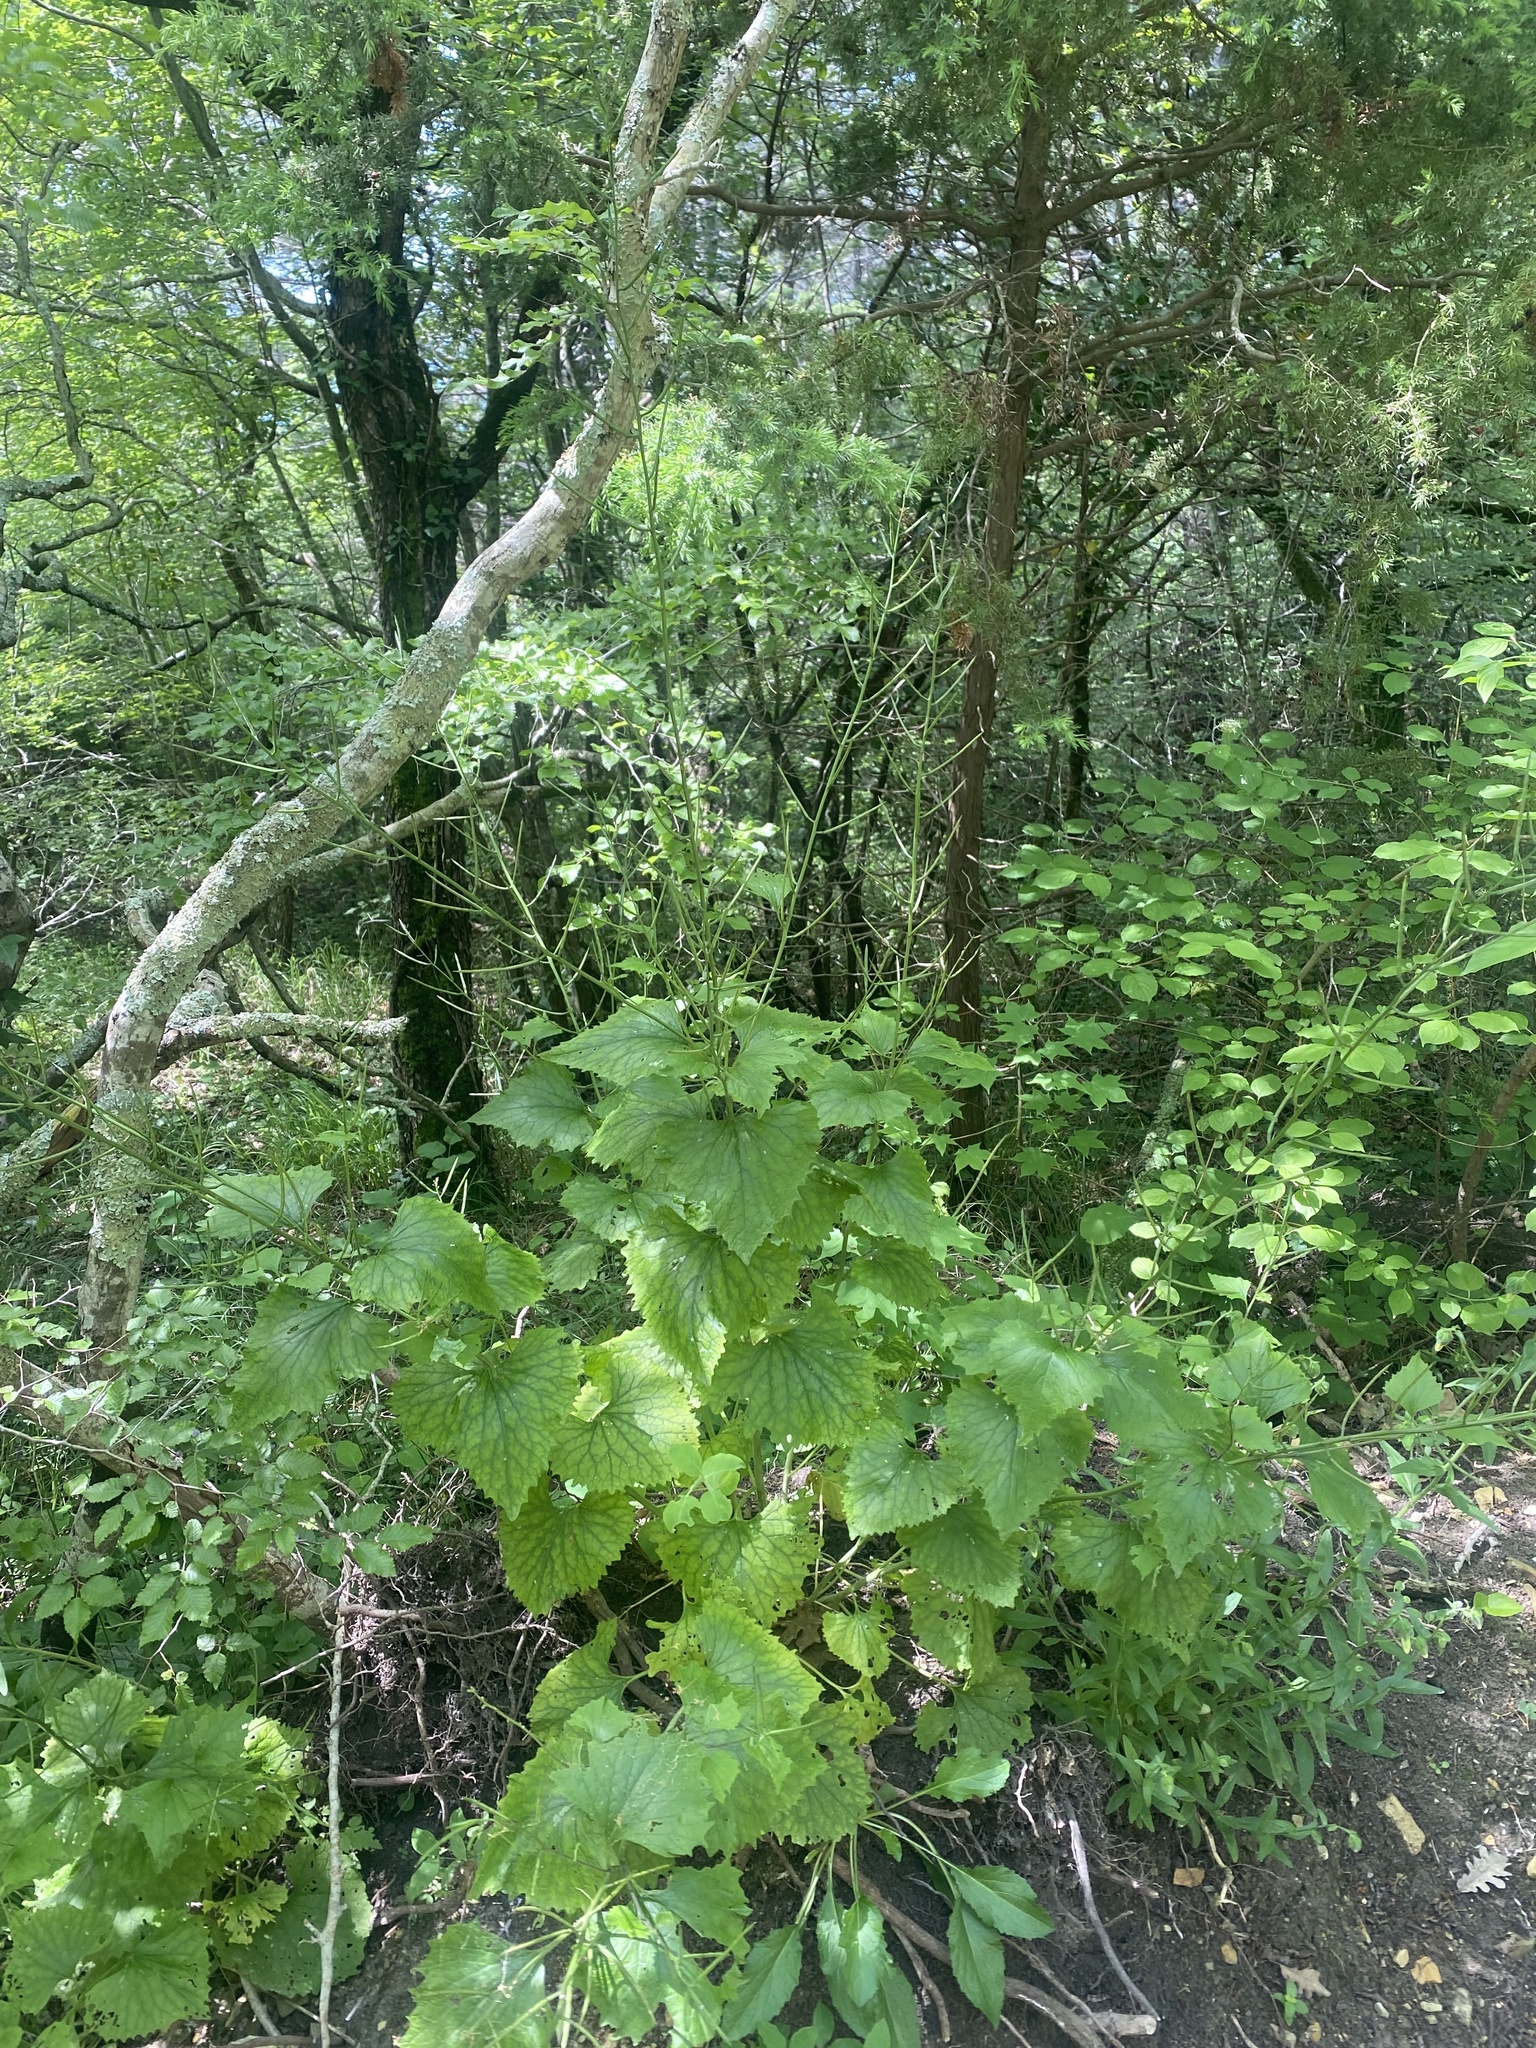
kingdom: Plantae
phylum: Tracheophyta
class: Magnoliopsida
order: Brassicales
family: Brassicaceae
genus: Alliaria
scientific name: Alliaria petiolata
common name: Garlic mustard
